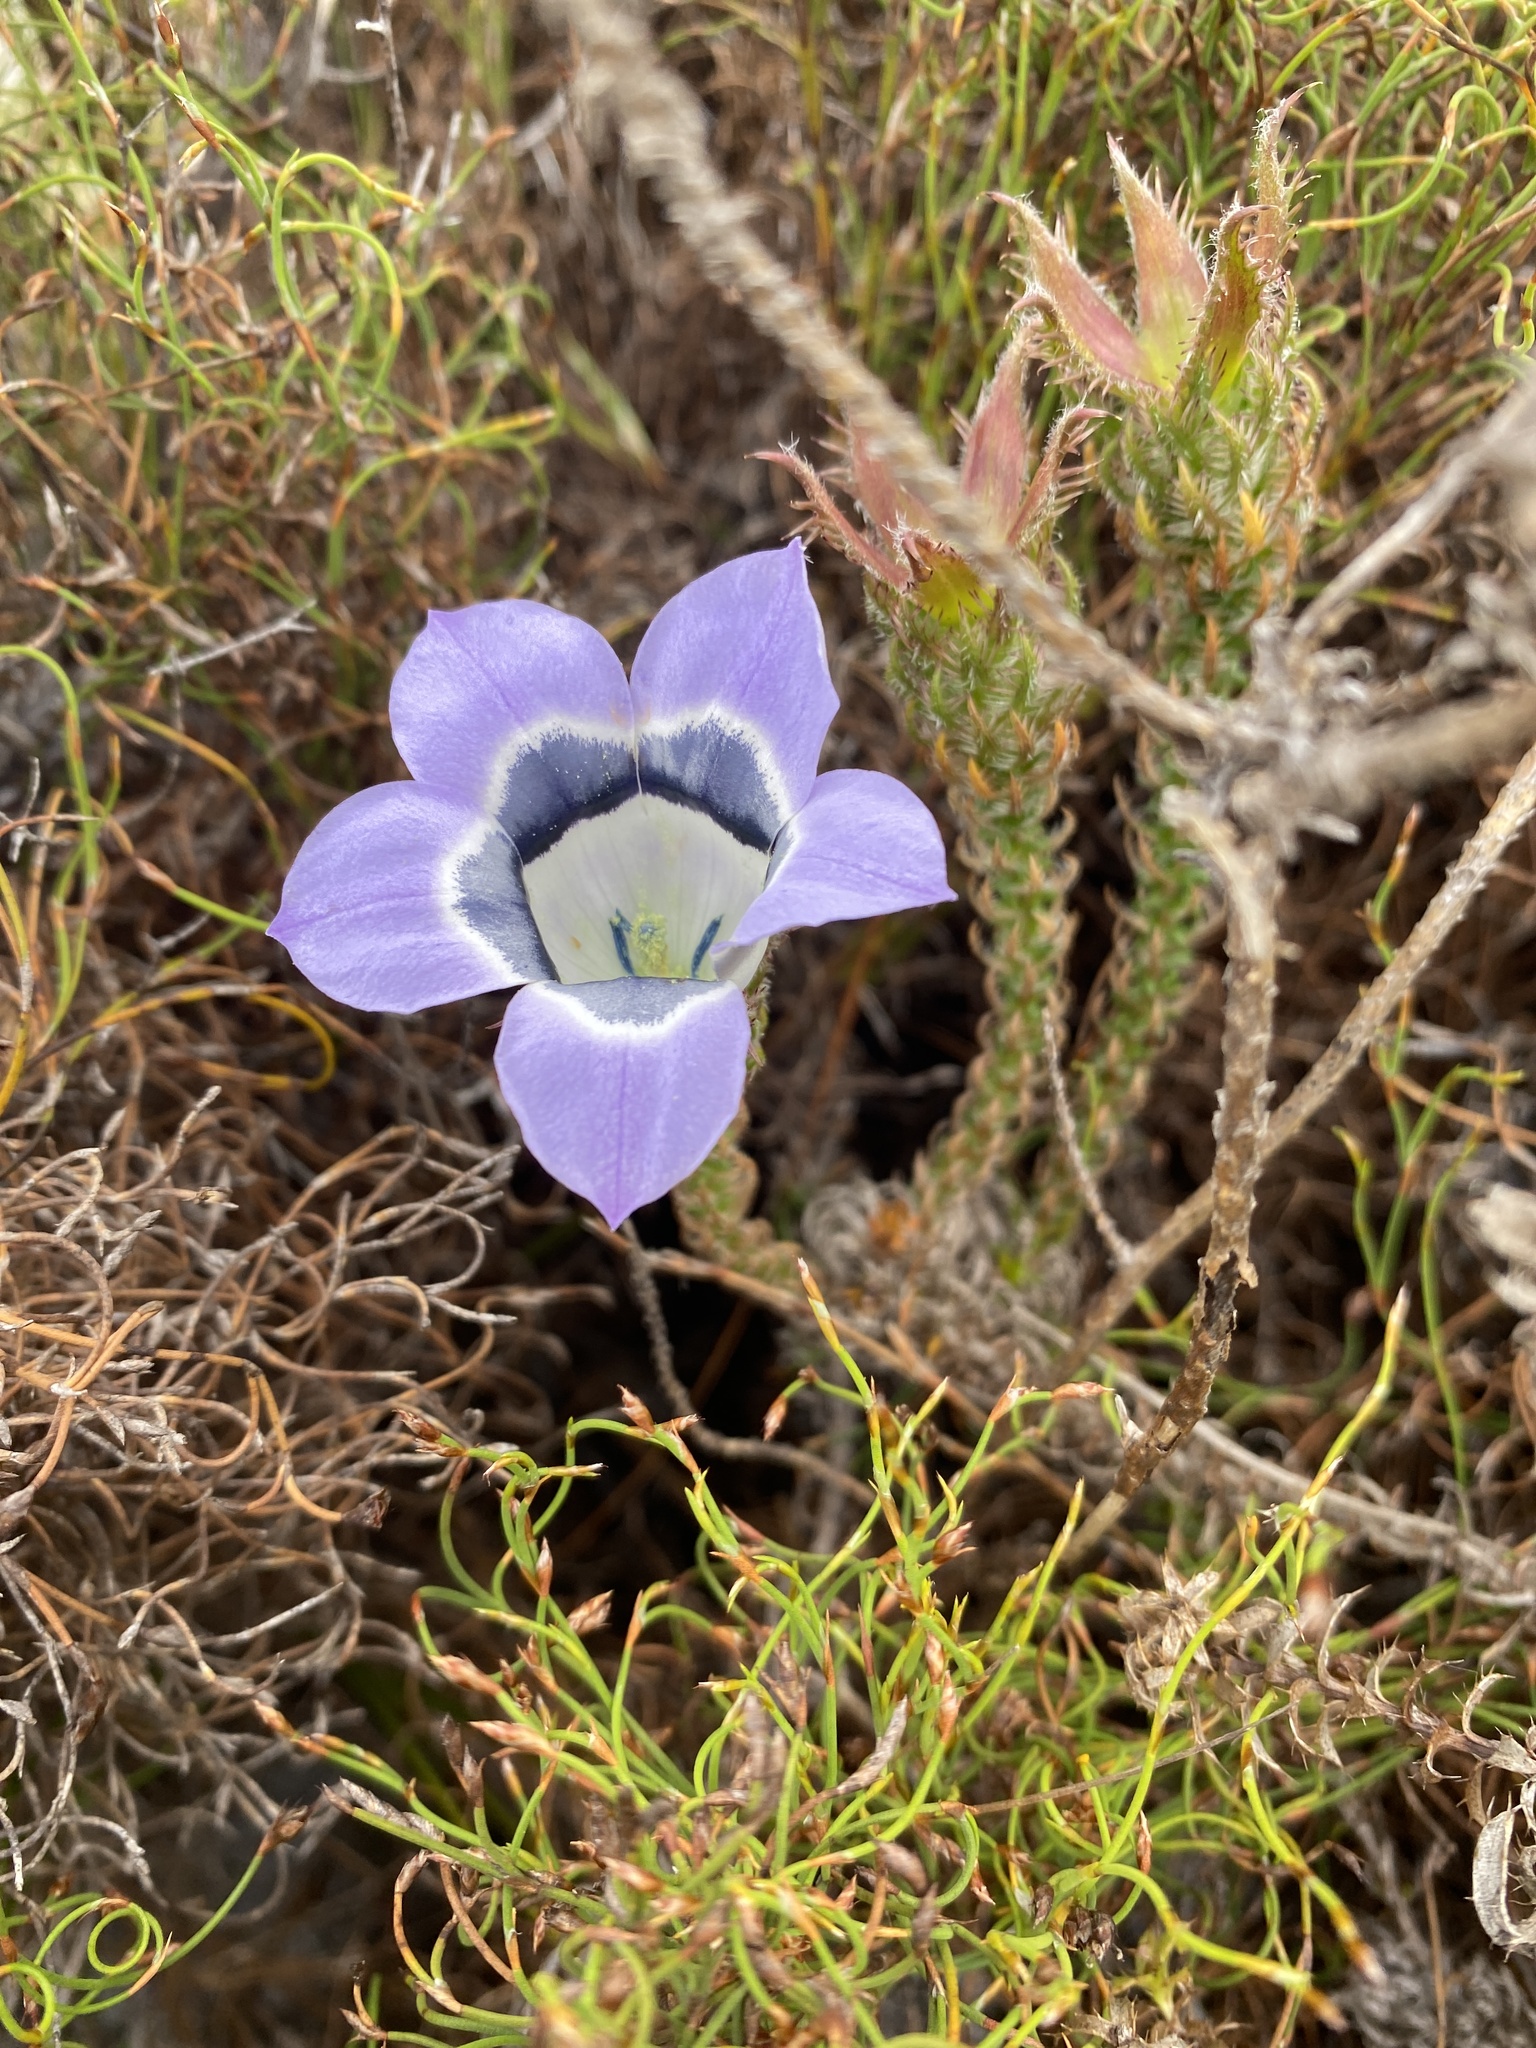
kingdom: Plantae
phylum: Tracheophyta
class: Magnoliopsida
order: Asterales
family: Campanulaceae
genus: Roella
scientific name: Roella ciliata
